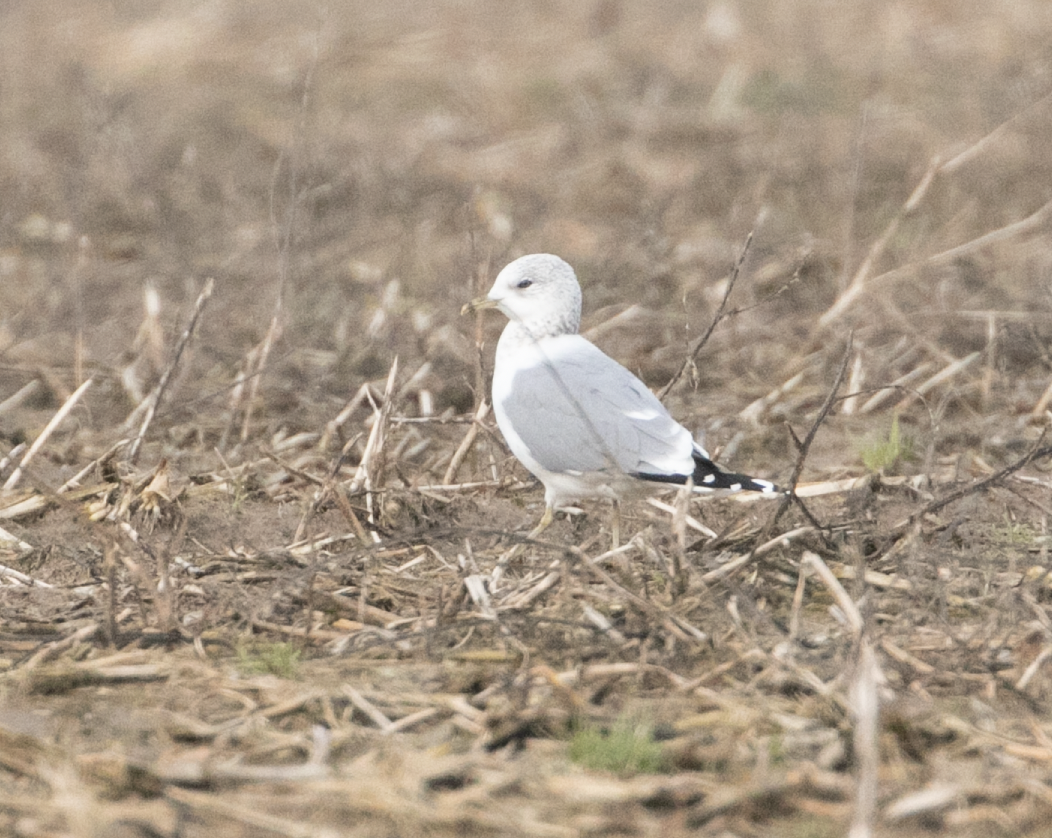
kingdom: Animalia
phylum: Chordata
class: Aves
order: Charadriiformes
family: Laridae
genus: Larus
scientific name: Larus canus
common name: Mew gull
